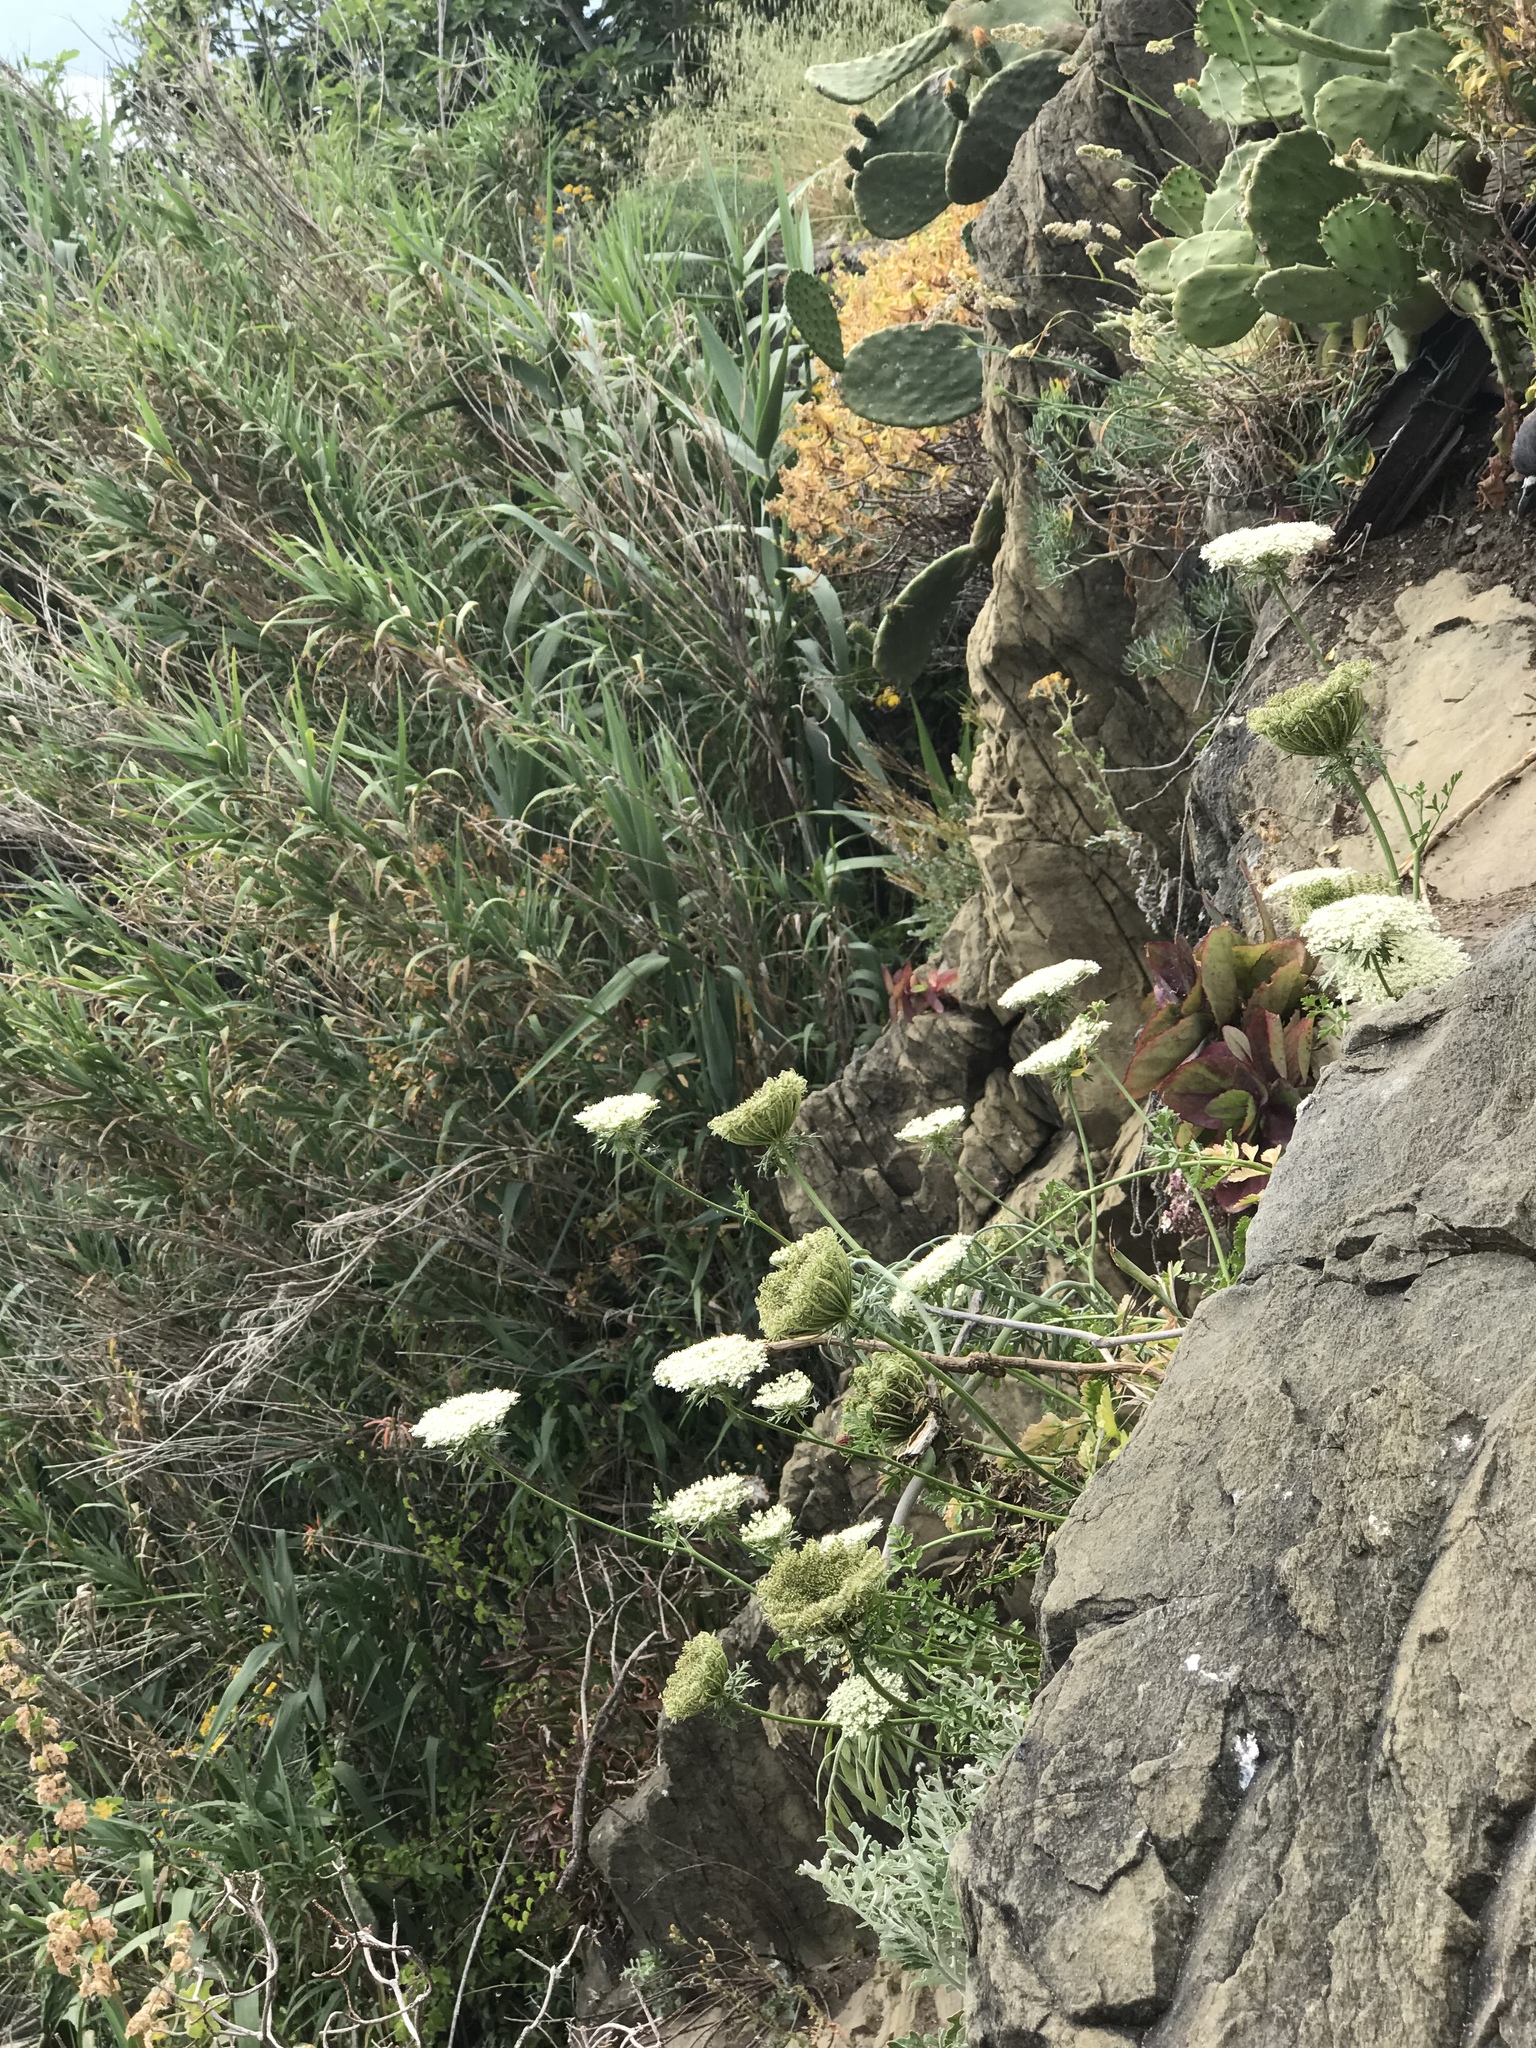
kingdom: Plantae
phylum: Tracheophyta
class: Magnoliopsida
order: Apiales
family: Apiaceae
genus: Daucus
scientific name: Daucus carota
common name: Wild carrot
